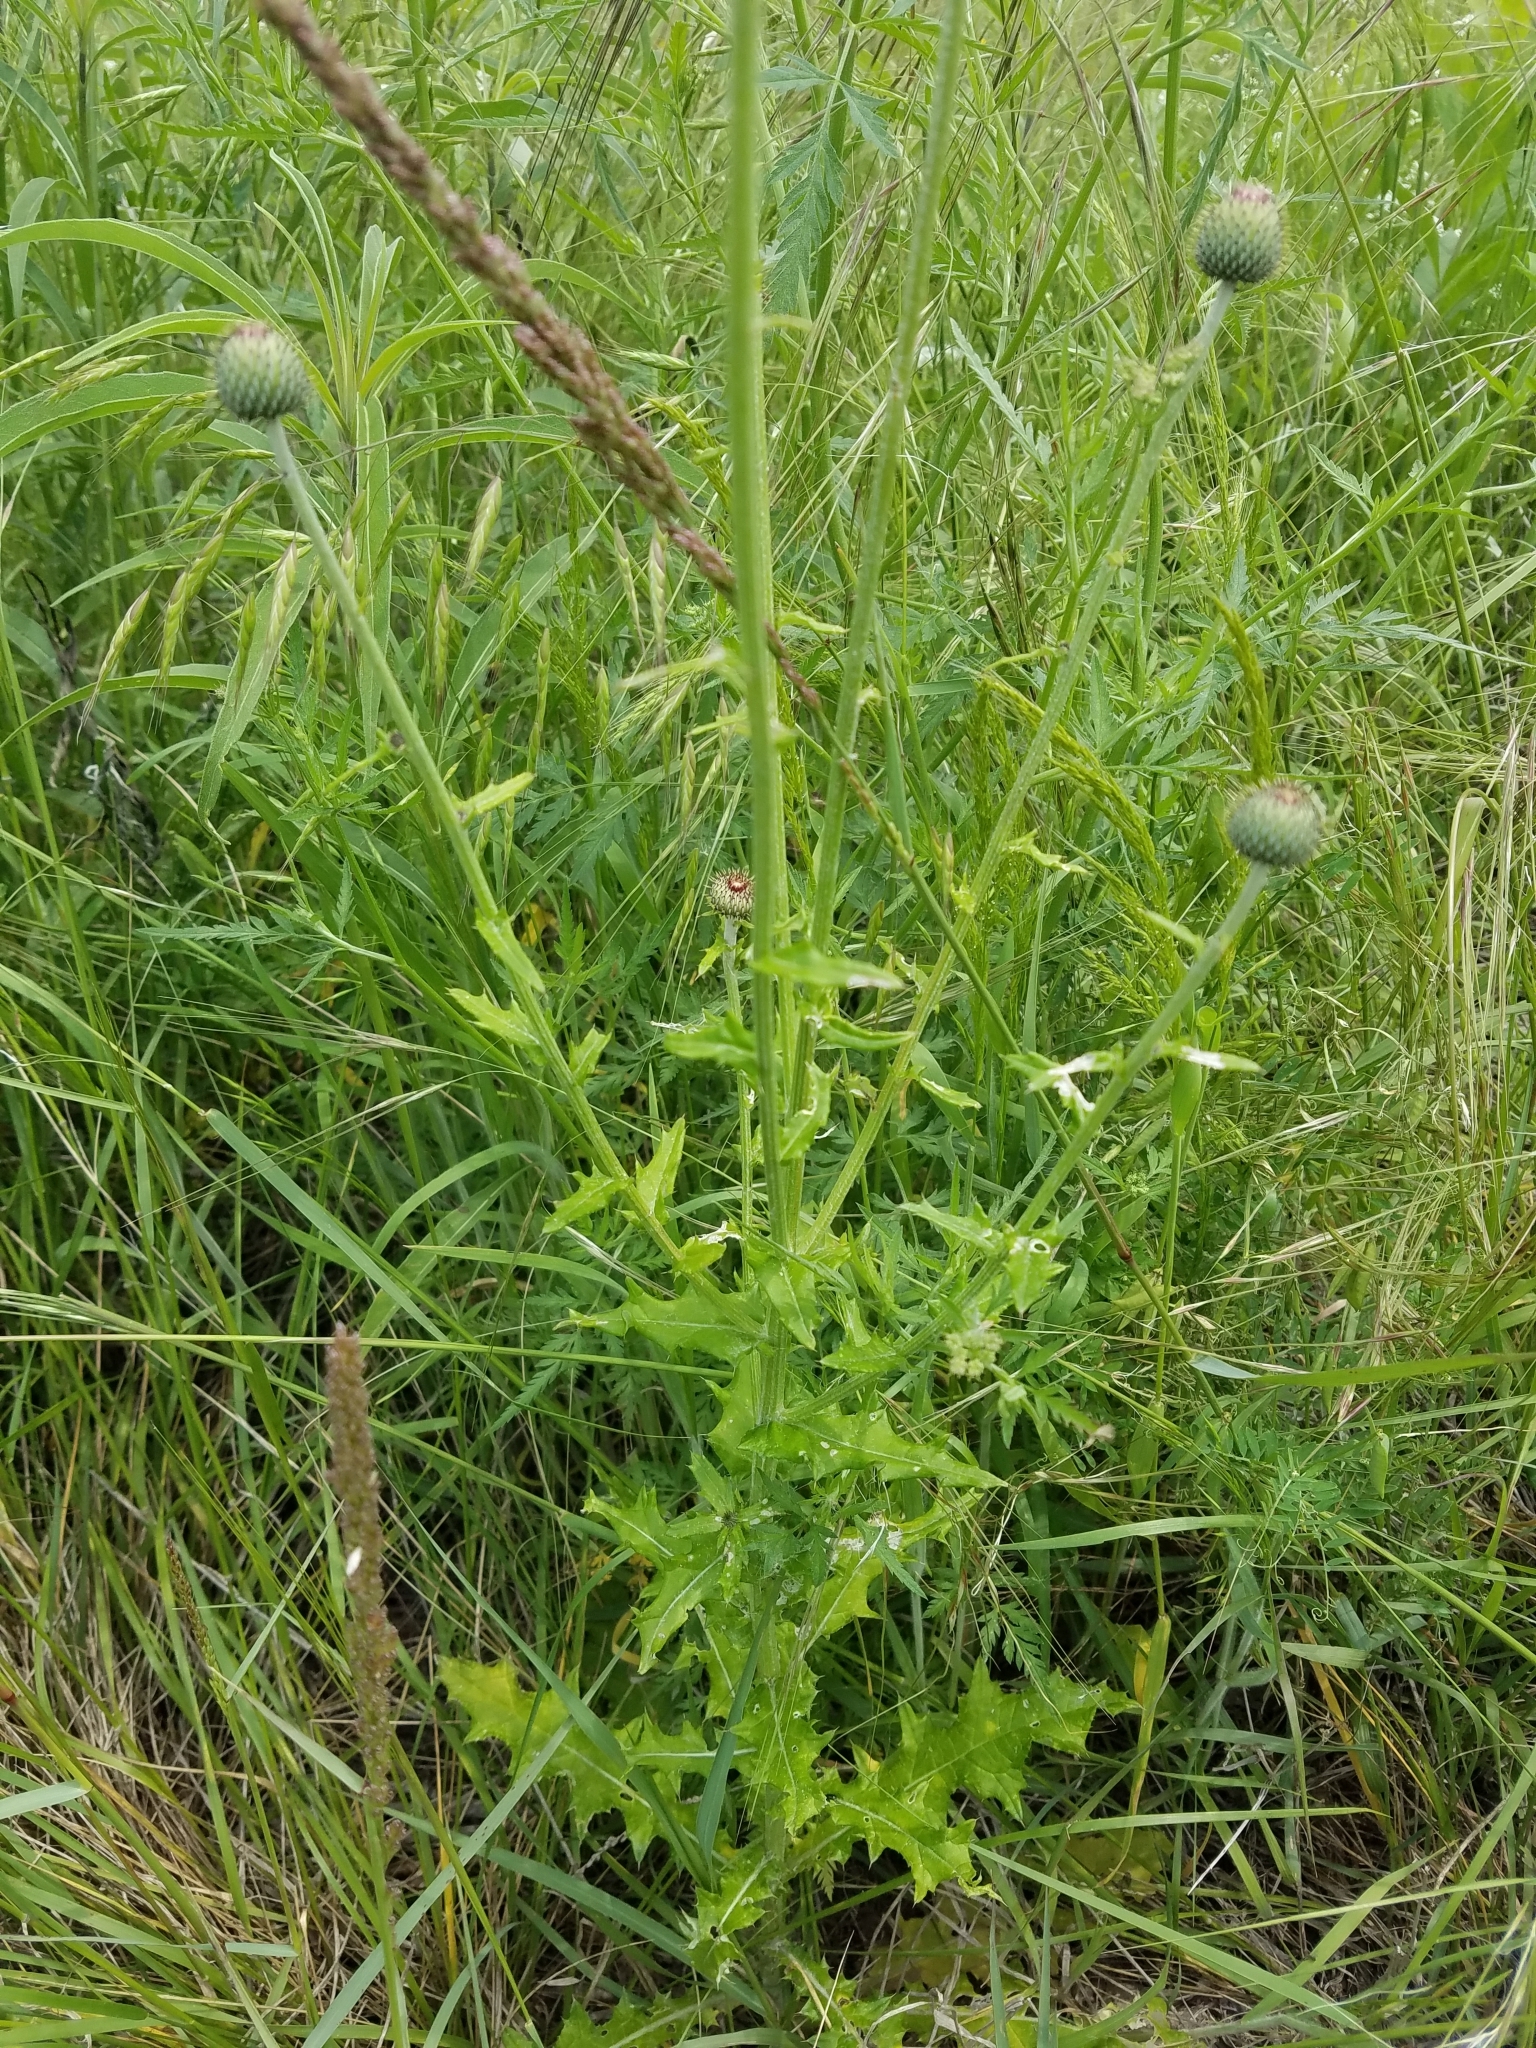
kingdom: Plantae
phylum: Tracheophyta
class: Magnoliopsida
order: Asterales
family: Asteraceae
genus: Cirsium
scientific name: Cirsium texanum
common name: Texas purple thistle
